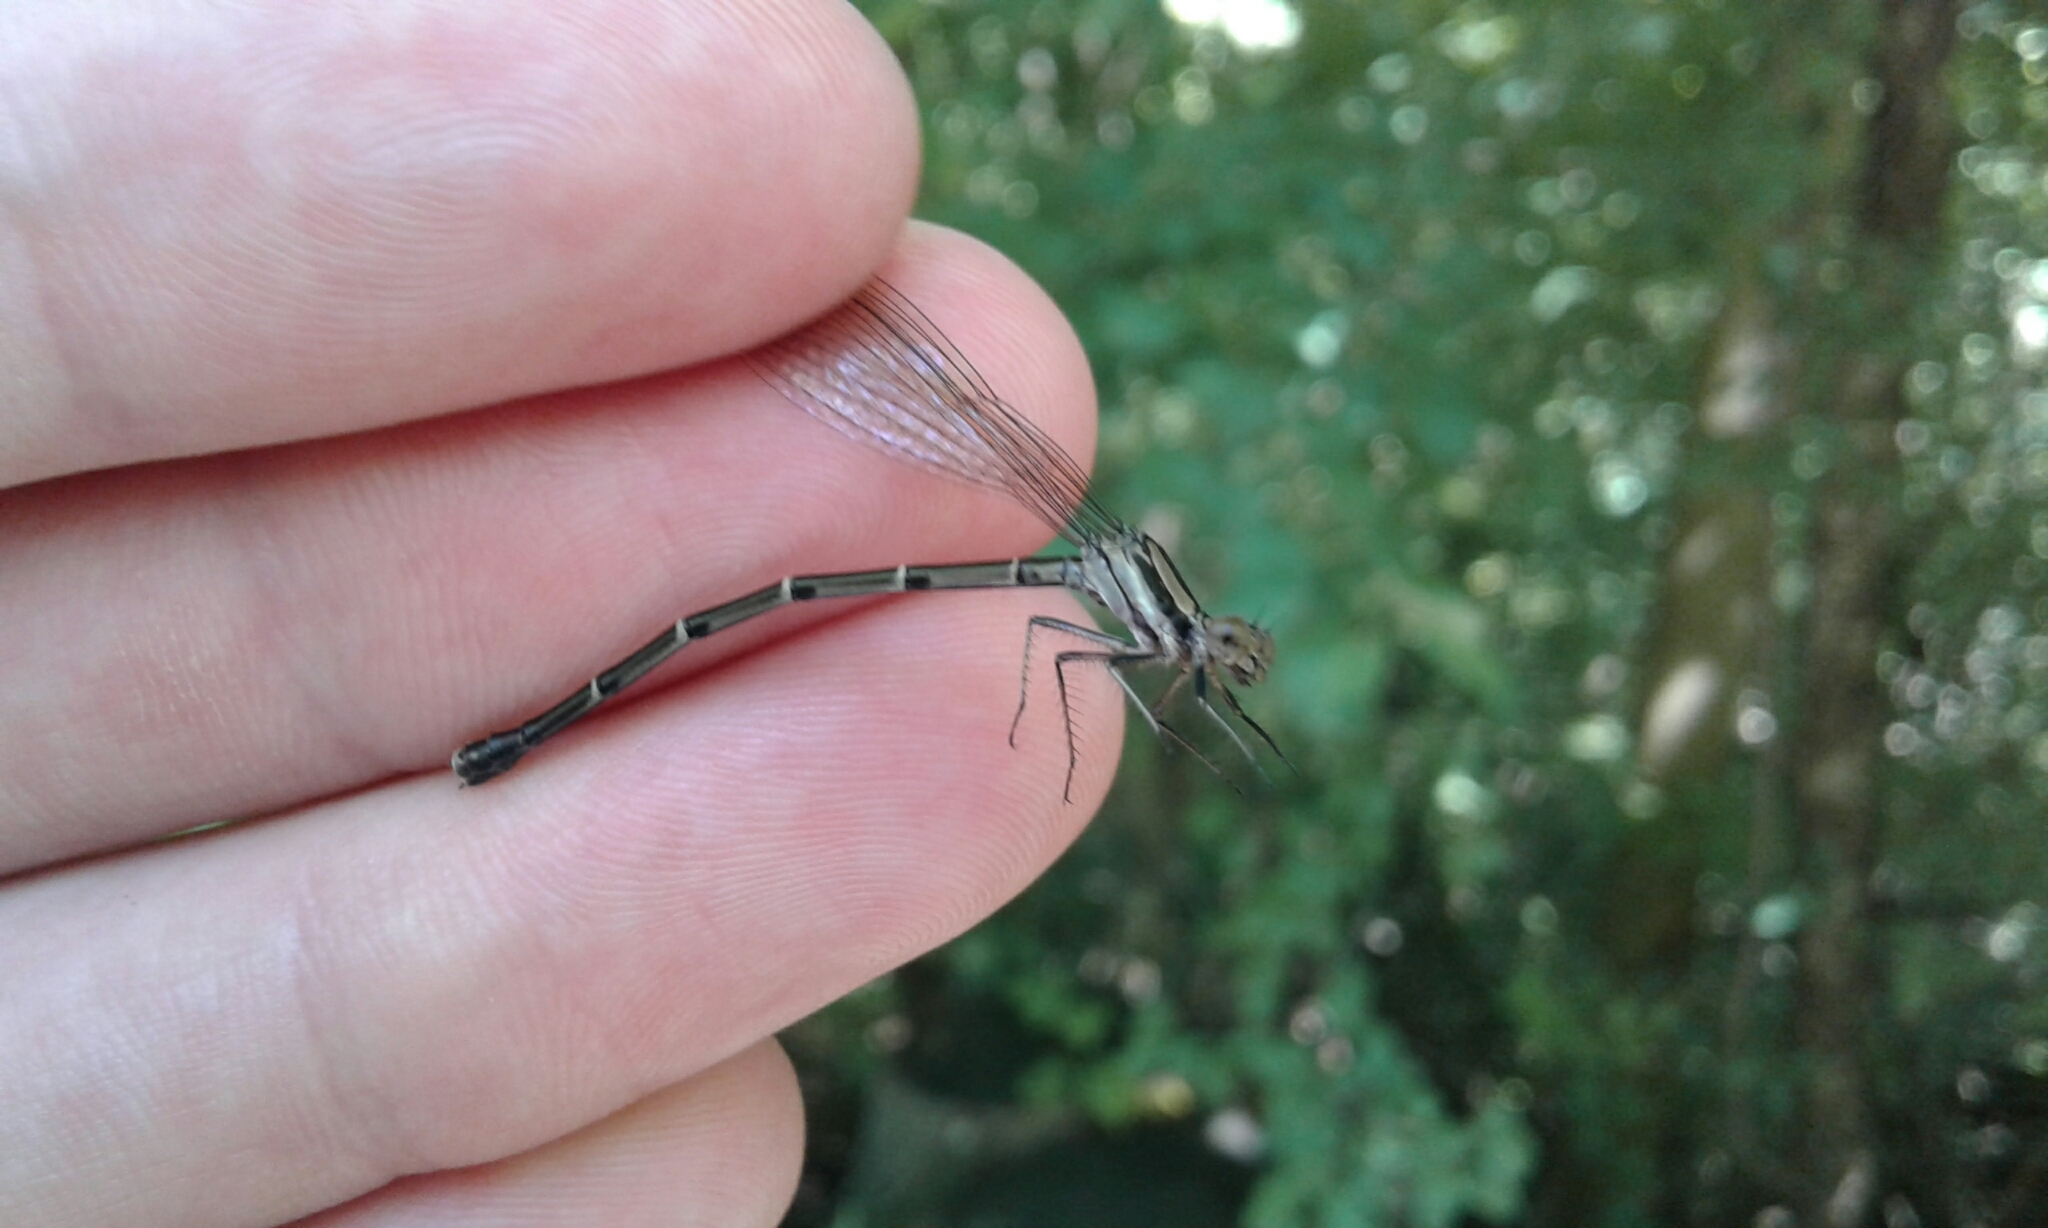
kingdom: Animalia
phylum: Arthropoda
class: Insecta
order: Odonata
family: Coenagrionidae
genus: Argia
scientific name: Argia tibialis
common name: Blue-tipped dancer
